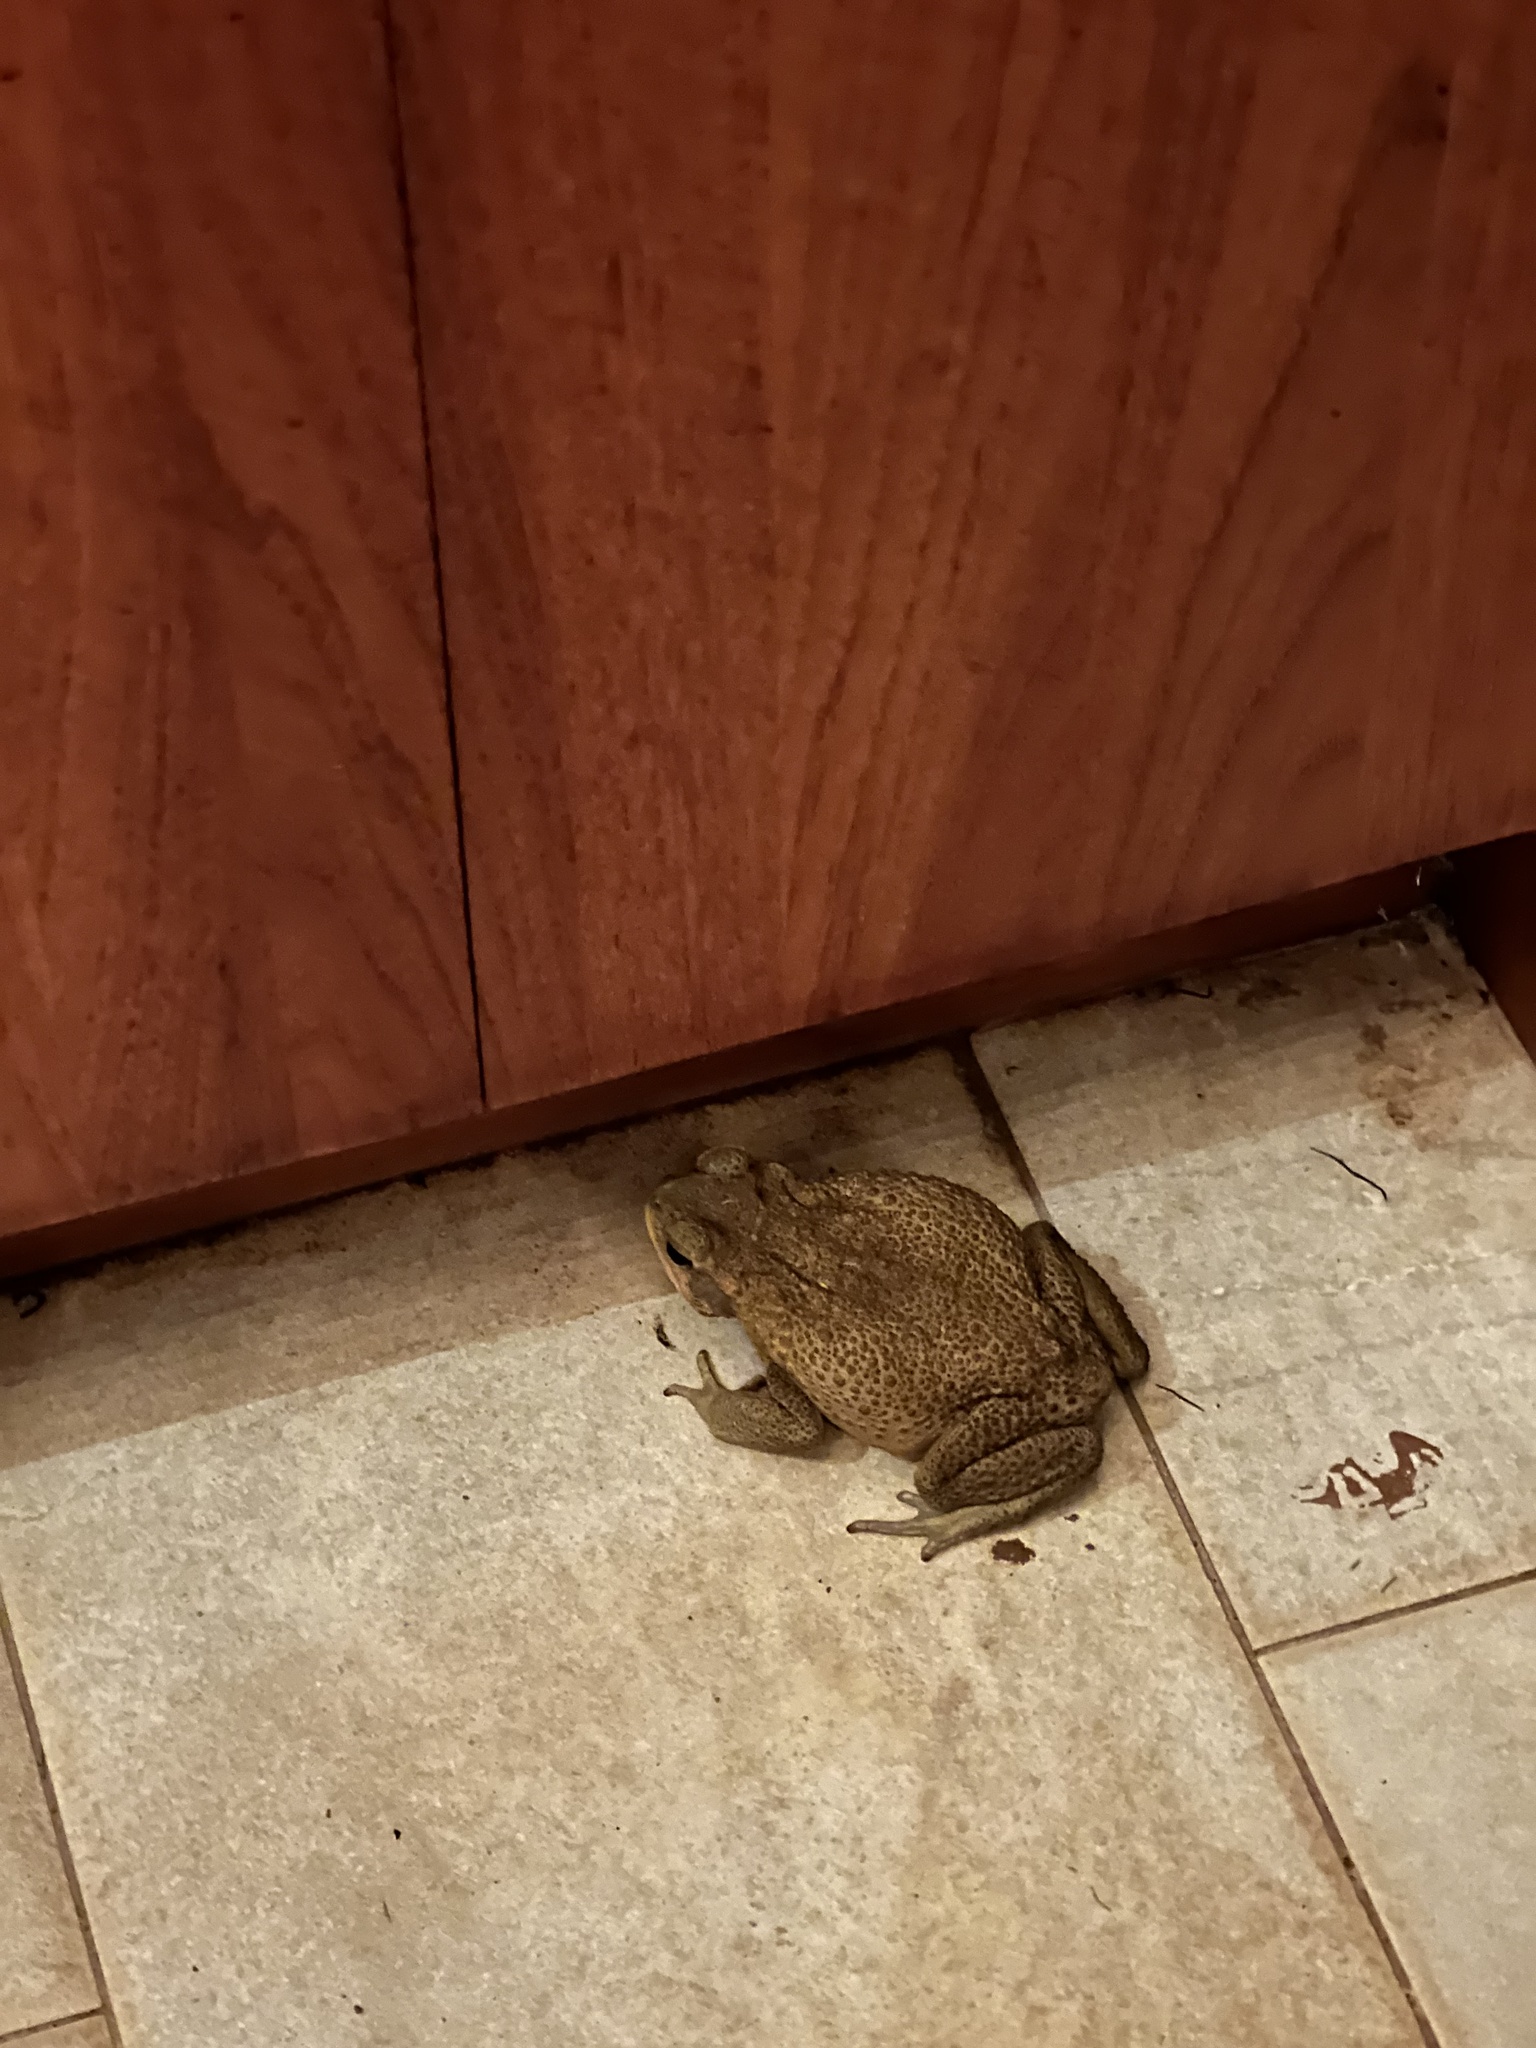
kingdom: Animalia
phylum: Chordata
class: Amphibia
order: Anura
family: Bufonidae
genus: Rhinella
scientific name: Rhinella marina
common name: Cane toad
